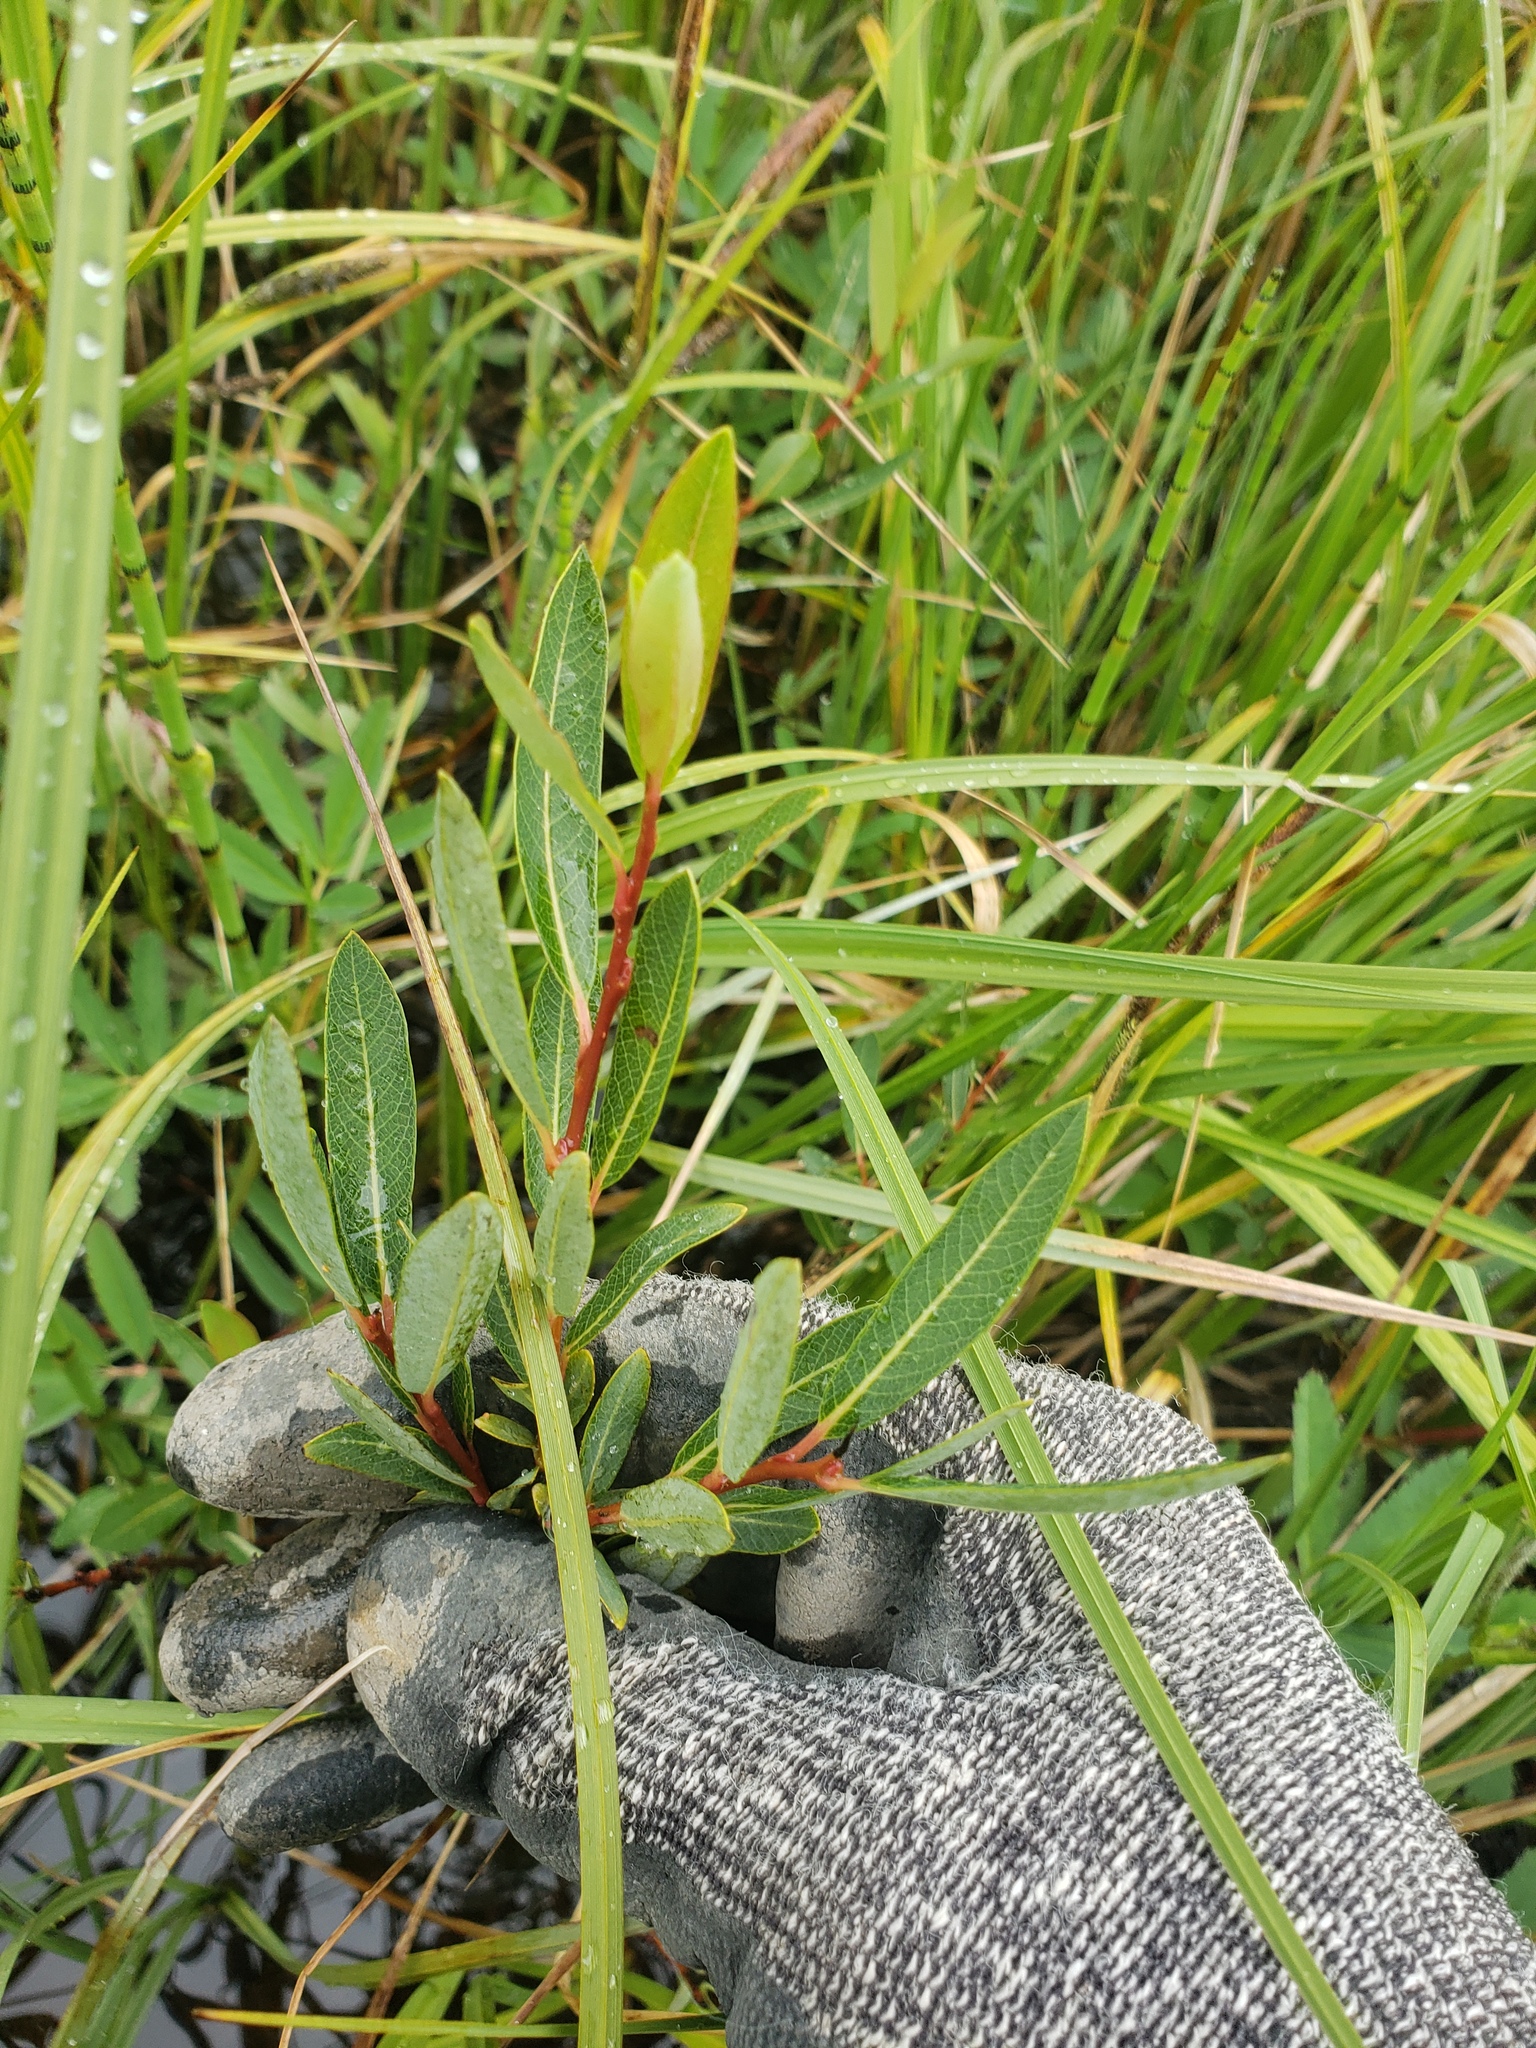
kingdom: Plantae
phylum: Tracheophyta
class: Magnoliopsida
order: Malpighiales
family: Salicaceae
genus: Salix
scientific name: Salix pedicellaris
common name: Bog willow
